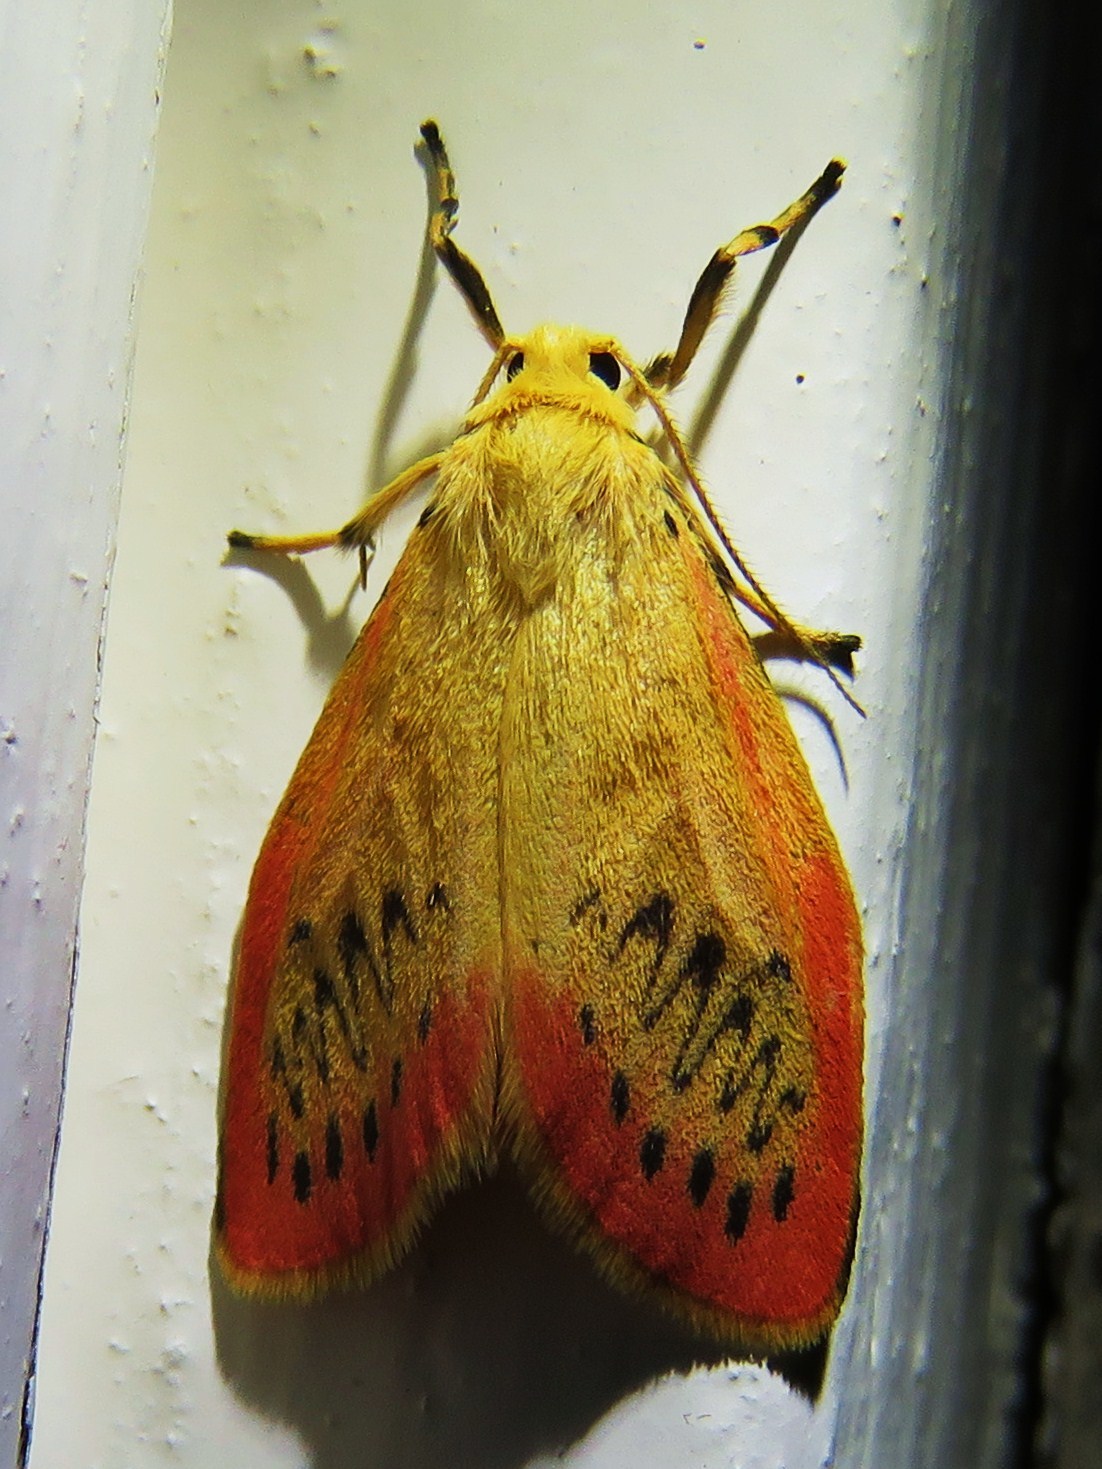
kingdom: Animalia
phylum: Arthropoda
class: Insecta
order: Lepidoptera
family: Erebidae
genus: Miltochrista
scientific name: Miltochrista miniata
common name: Rosy footman
